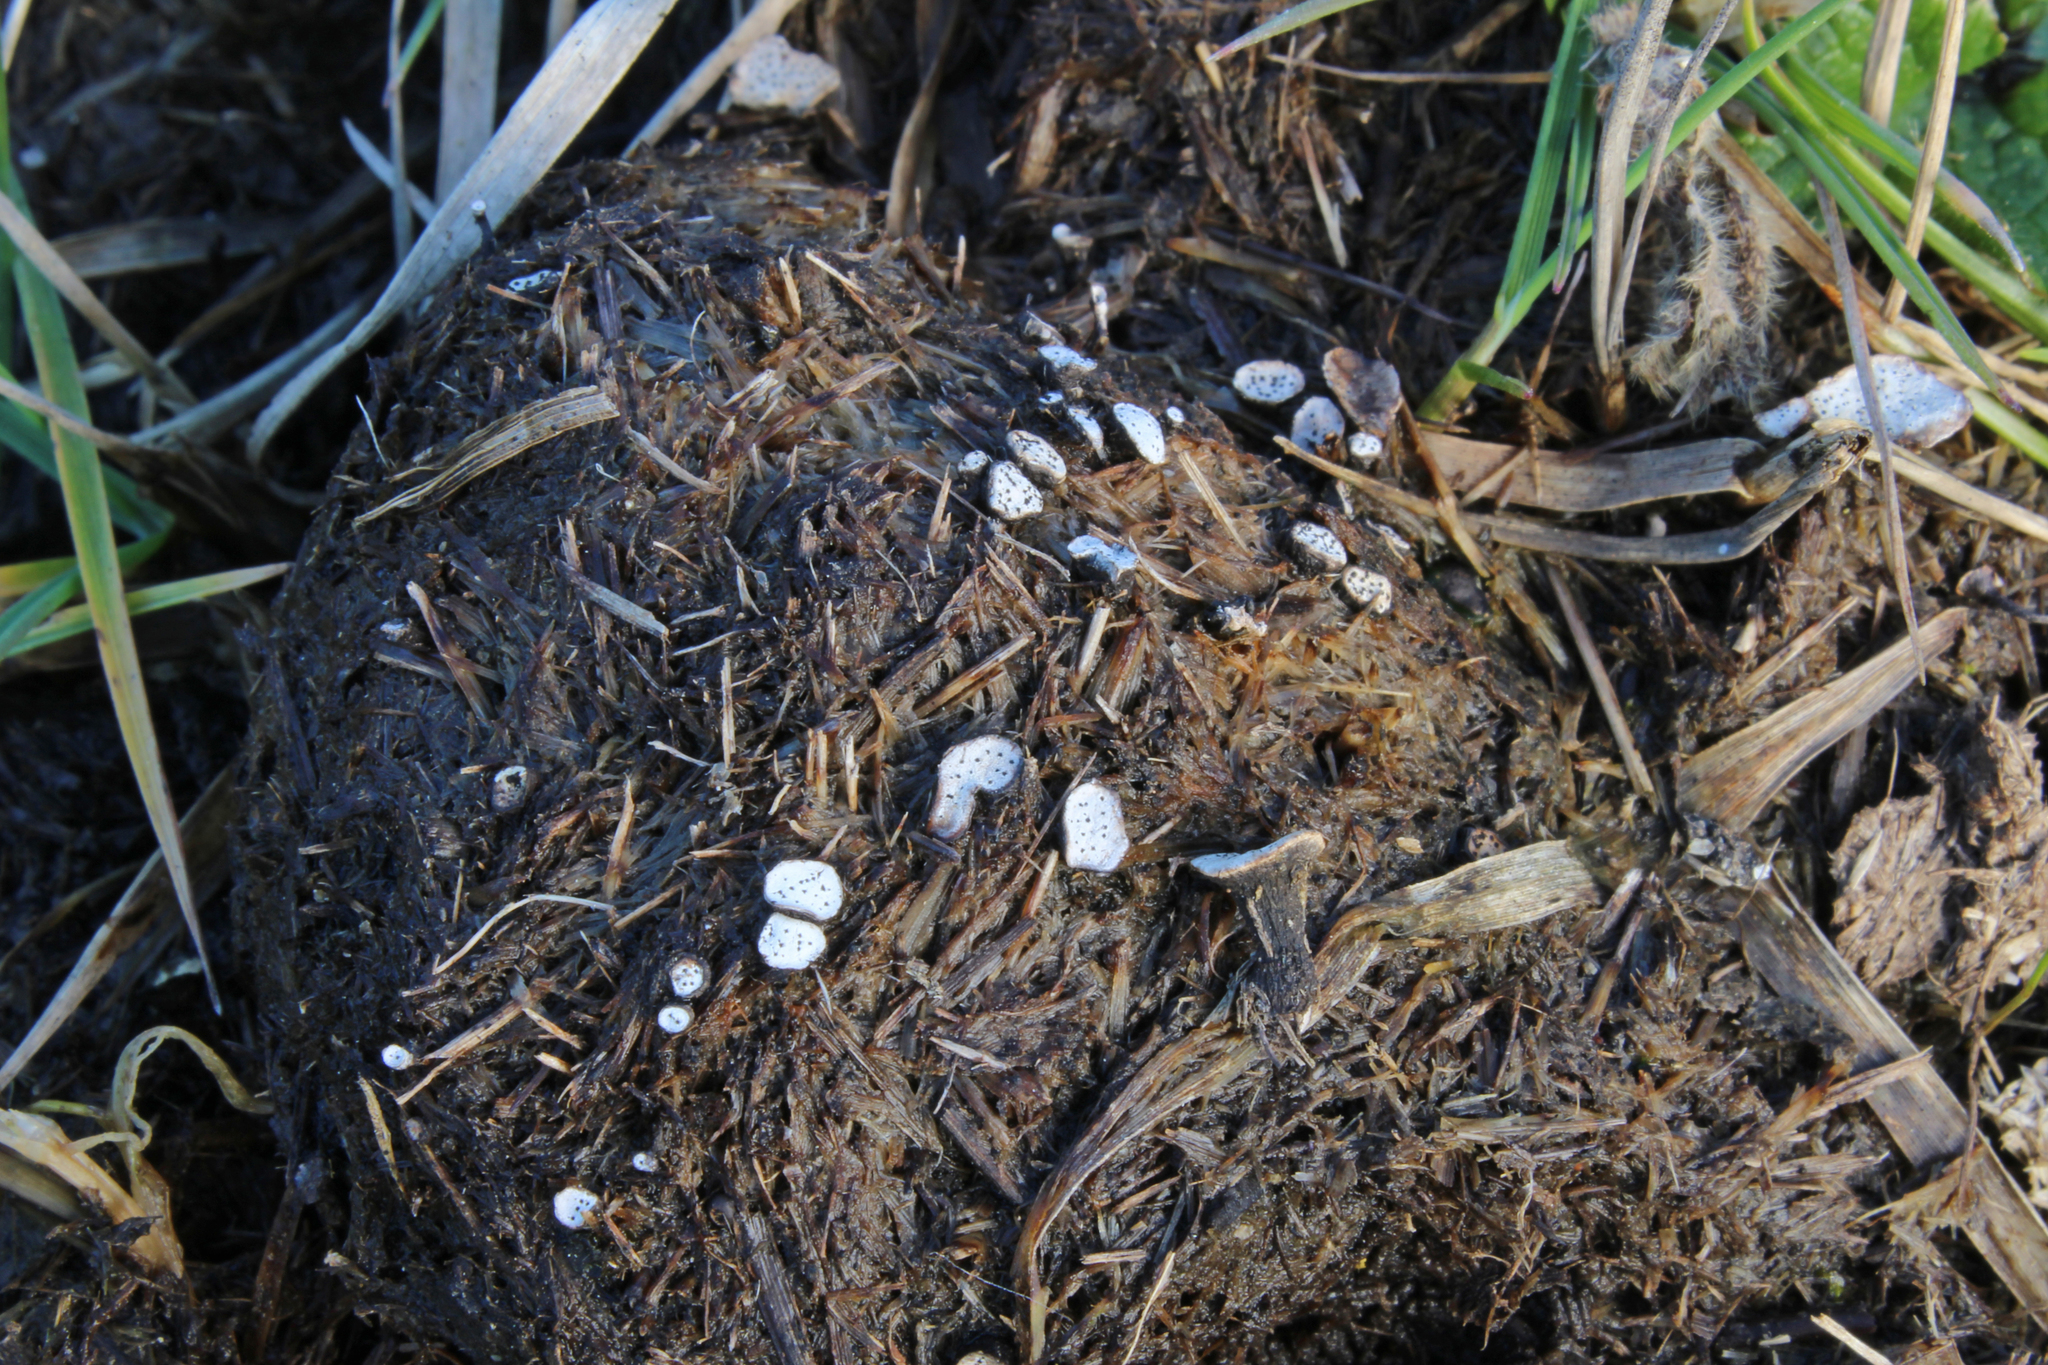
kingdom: Fungi
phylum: Ascomycota
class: Sordariomycetes
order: Xylariales
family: Xylariaceae
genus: Poronia
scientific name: Poronia punctata
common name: Nail fungus
